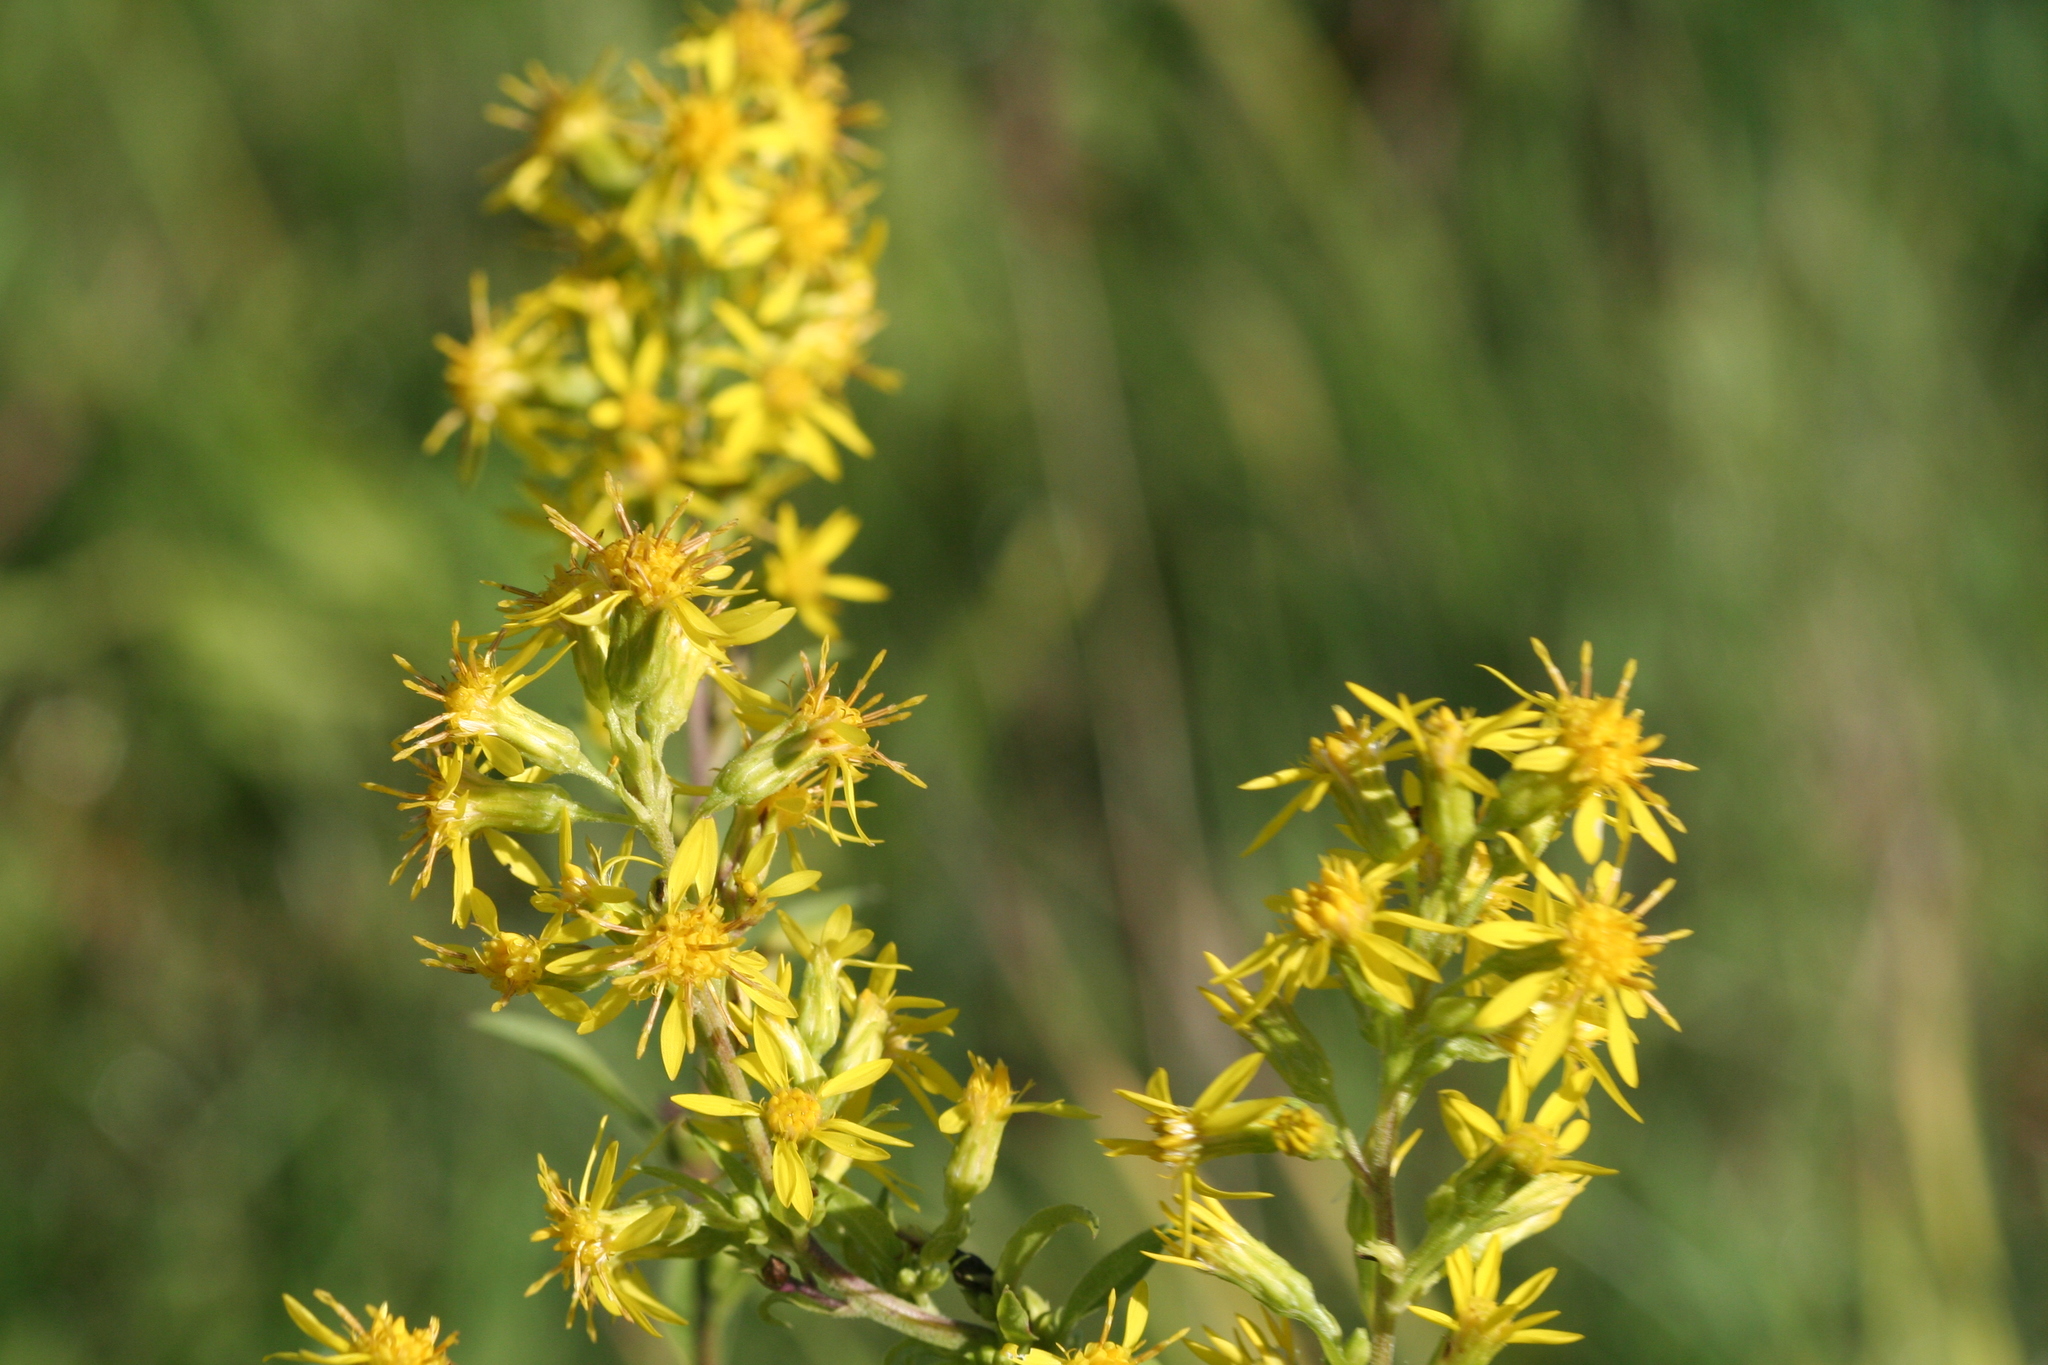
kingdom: Plantae
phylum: Tracheophyta
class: Magnoliopsida
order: Asterales
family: Asteraceae
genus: Solidago
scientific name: Solidago virgaurea
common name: Goldenrod
